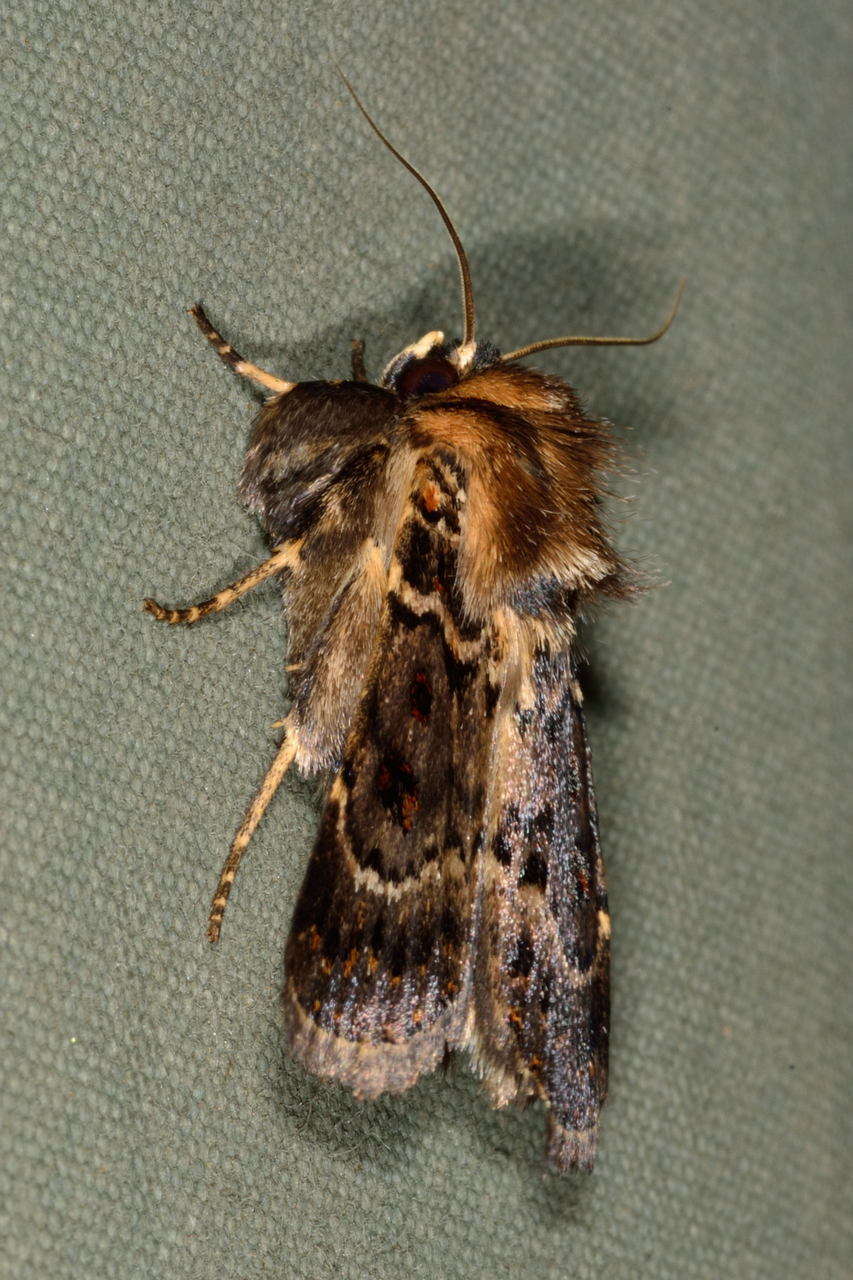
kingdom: Animalia
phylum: Arthropoda
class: Insecta
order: Lepidoptera
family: Noctuidae
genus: Proteuxoa
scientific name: Proteuxoa sanguinipuncta
